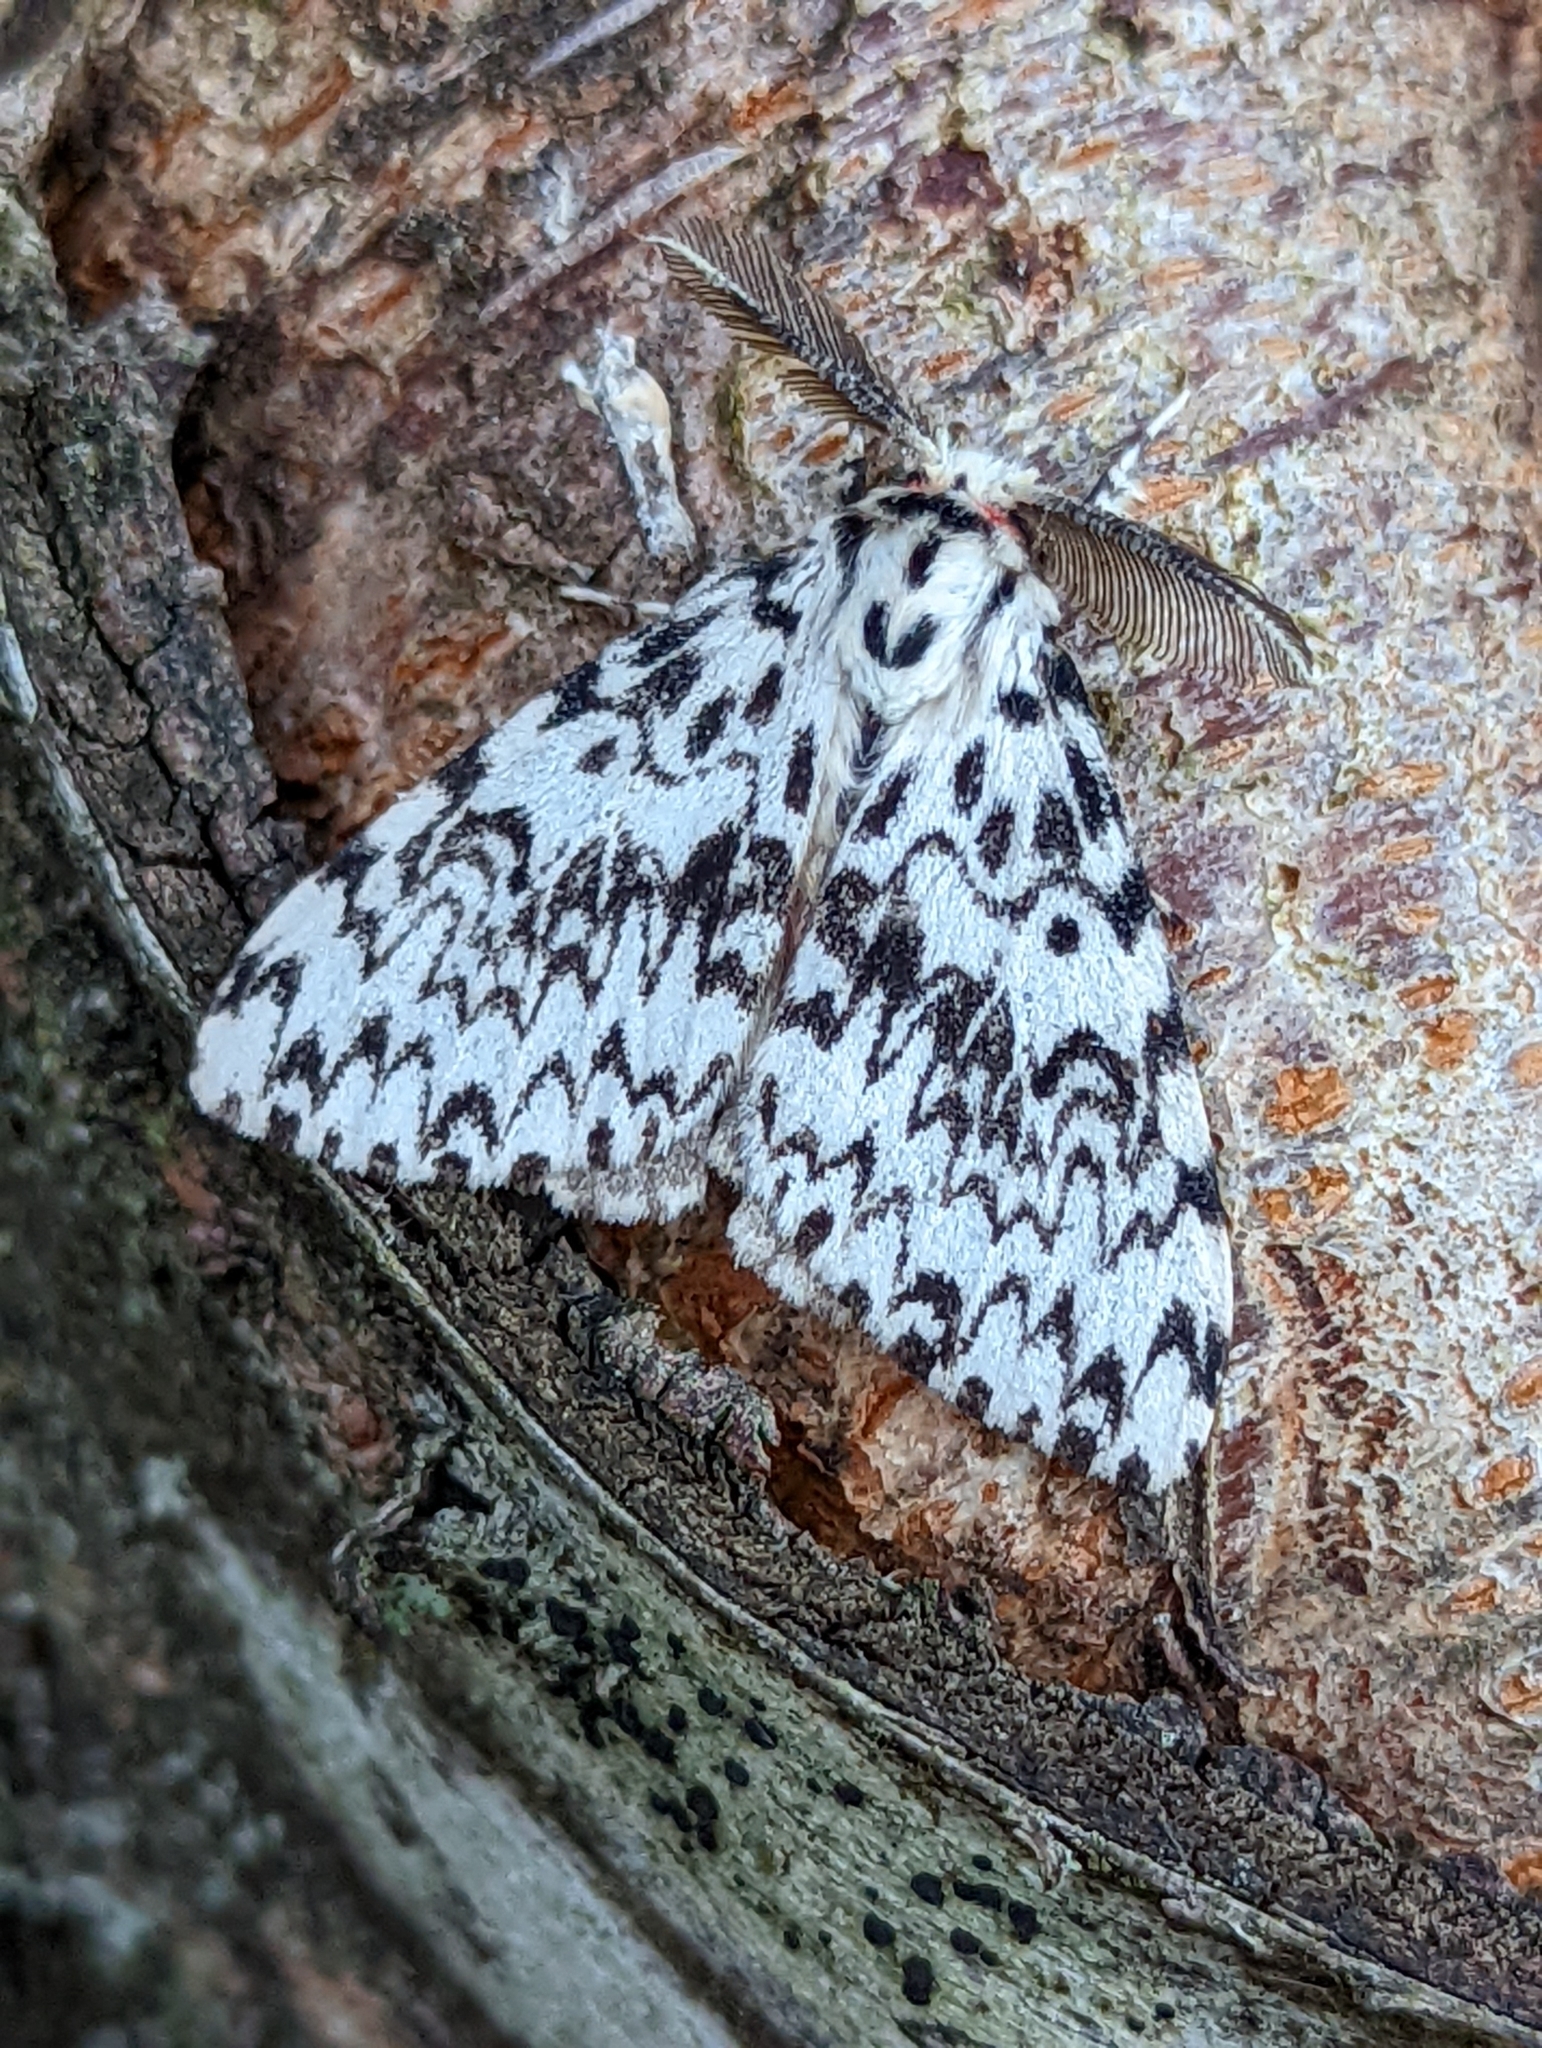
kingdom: Animalia
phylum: Arthropoda
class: Insecta
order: Lepidoptera
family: Erebidae
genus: Lymantria
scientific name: Lymantria monacha
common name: Black arches
